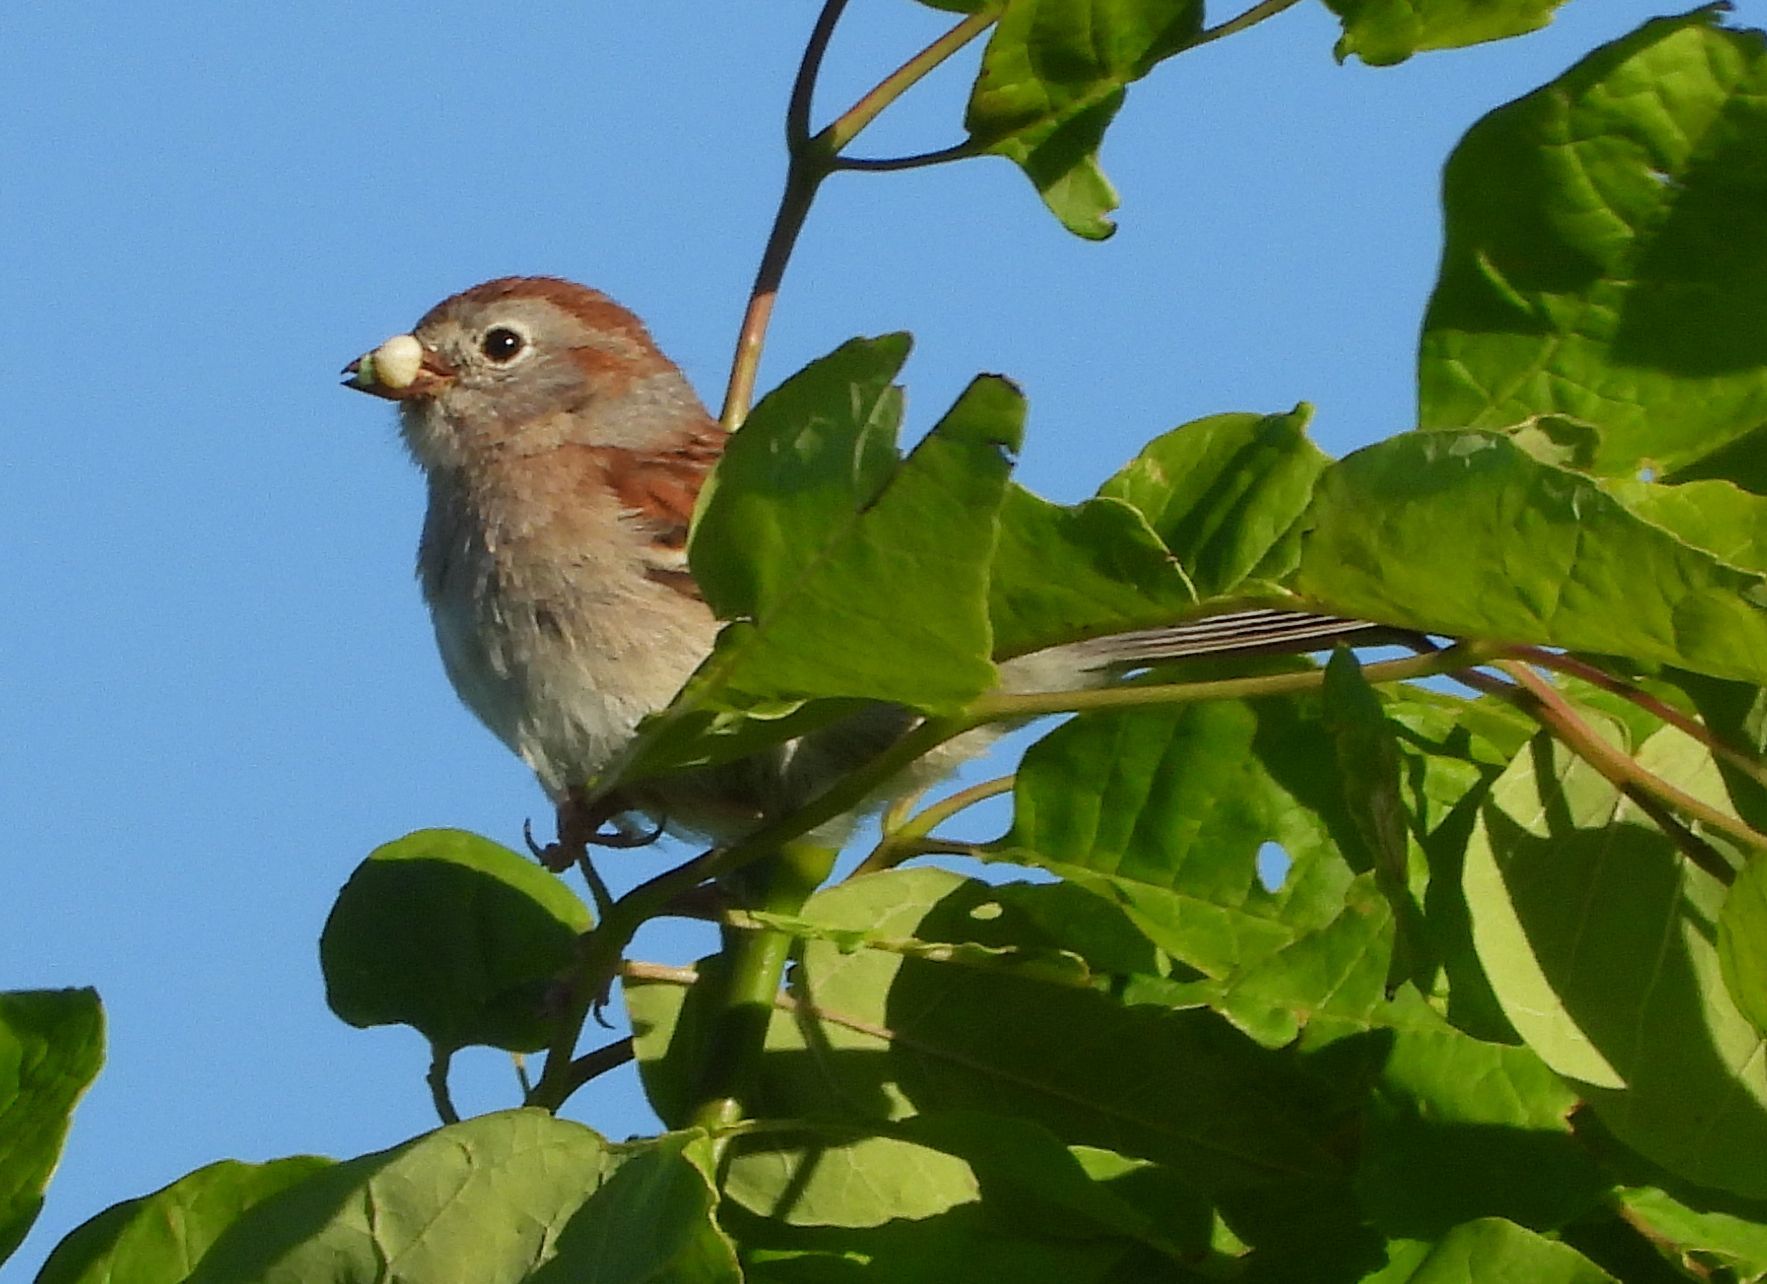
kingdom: Animalia
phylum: Chordata
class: Aves
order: Passeriformes
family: Passerellidae
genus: Spizella
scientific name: Spizella pusilla
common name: Field sparrow
